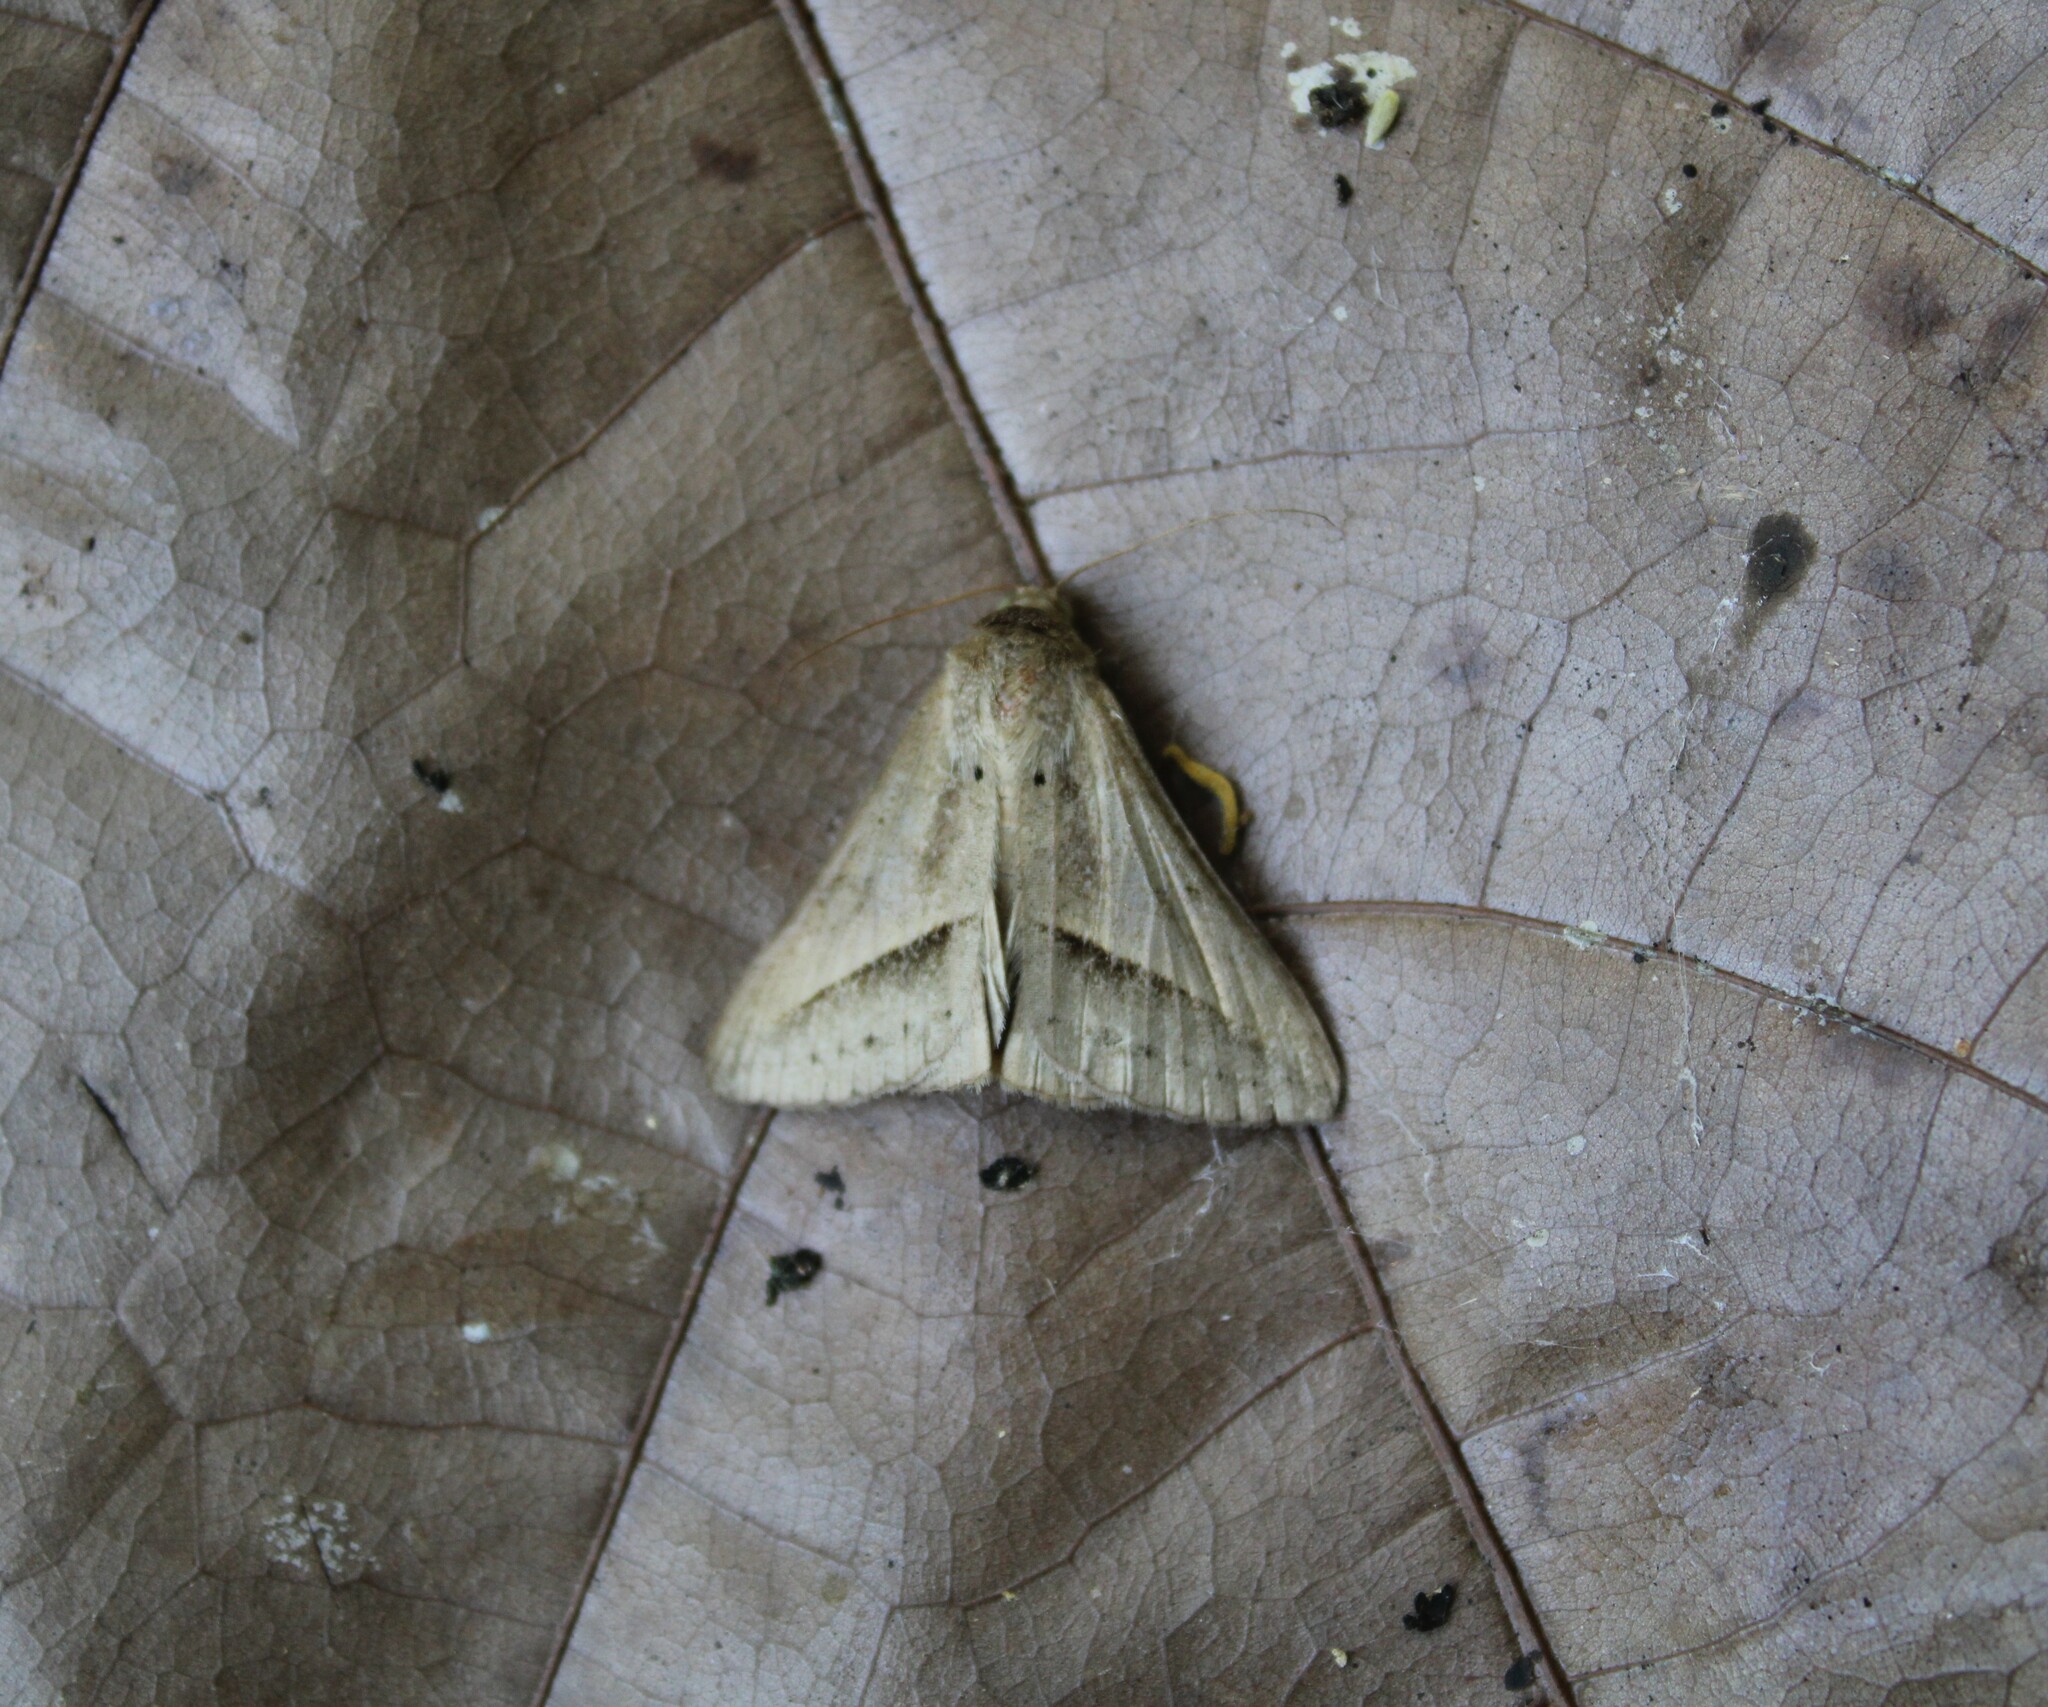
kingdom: Animalia
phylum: Arthropoda
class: Insecta
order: Lepidoptera
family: Erebidae
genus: Mocis
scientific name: Mocis frugalis
